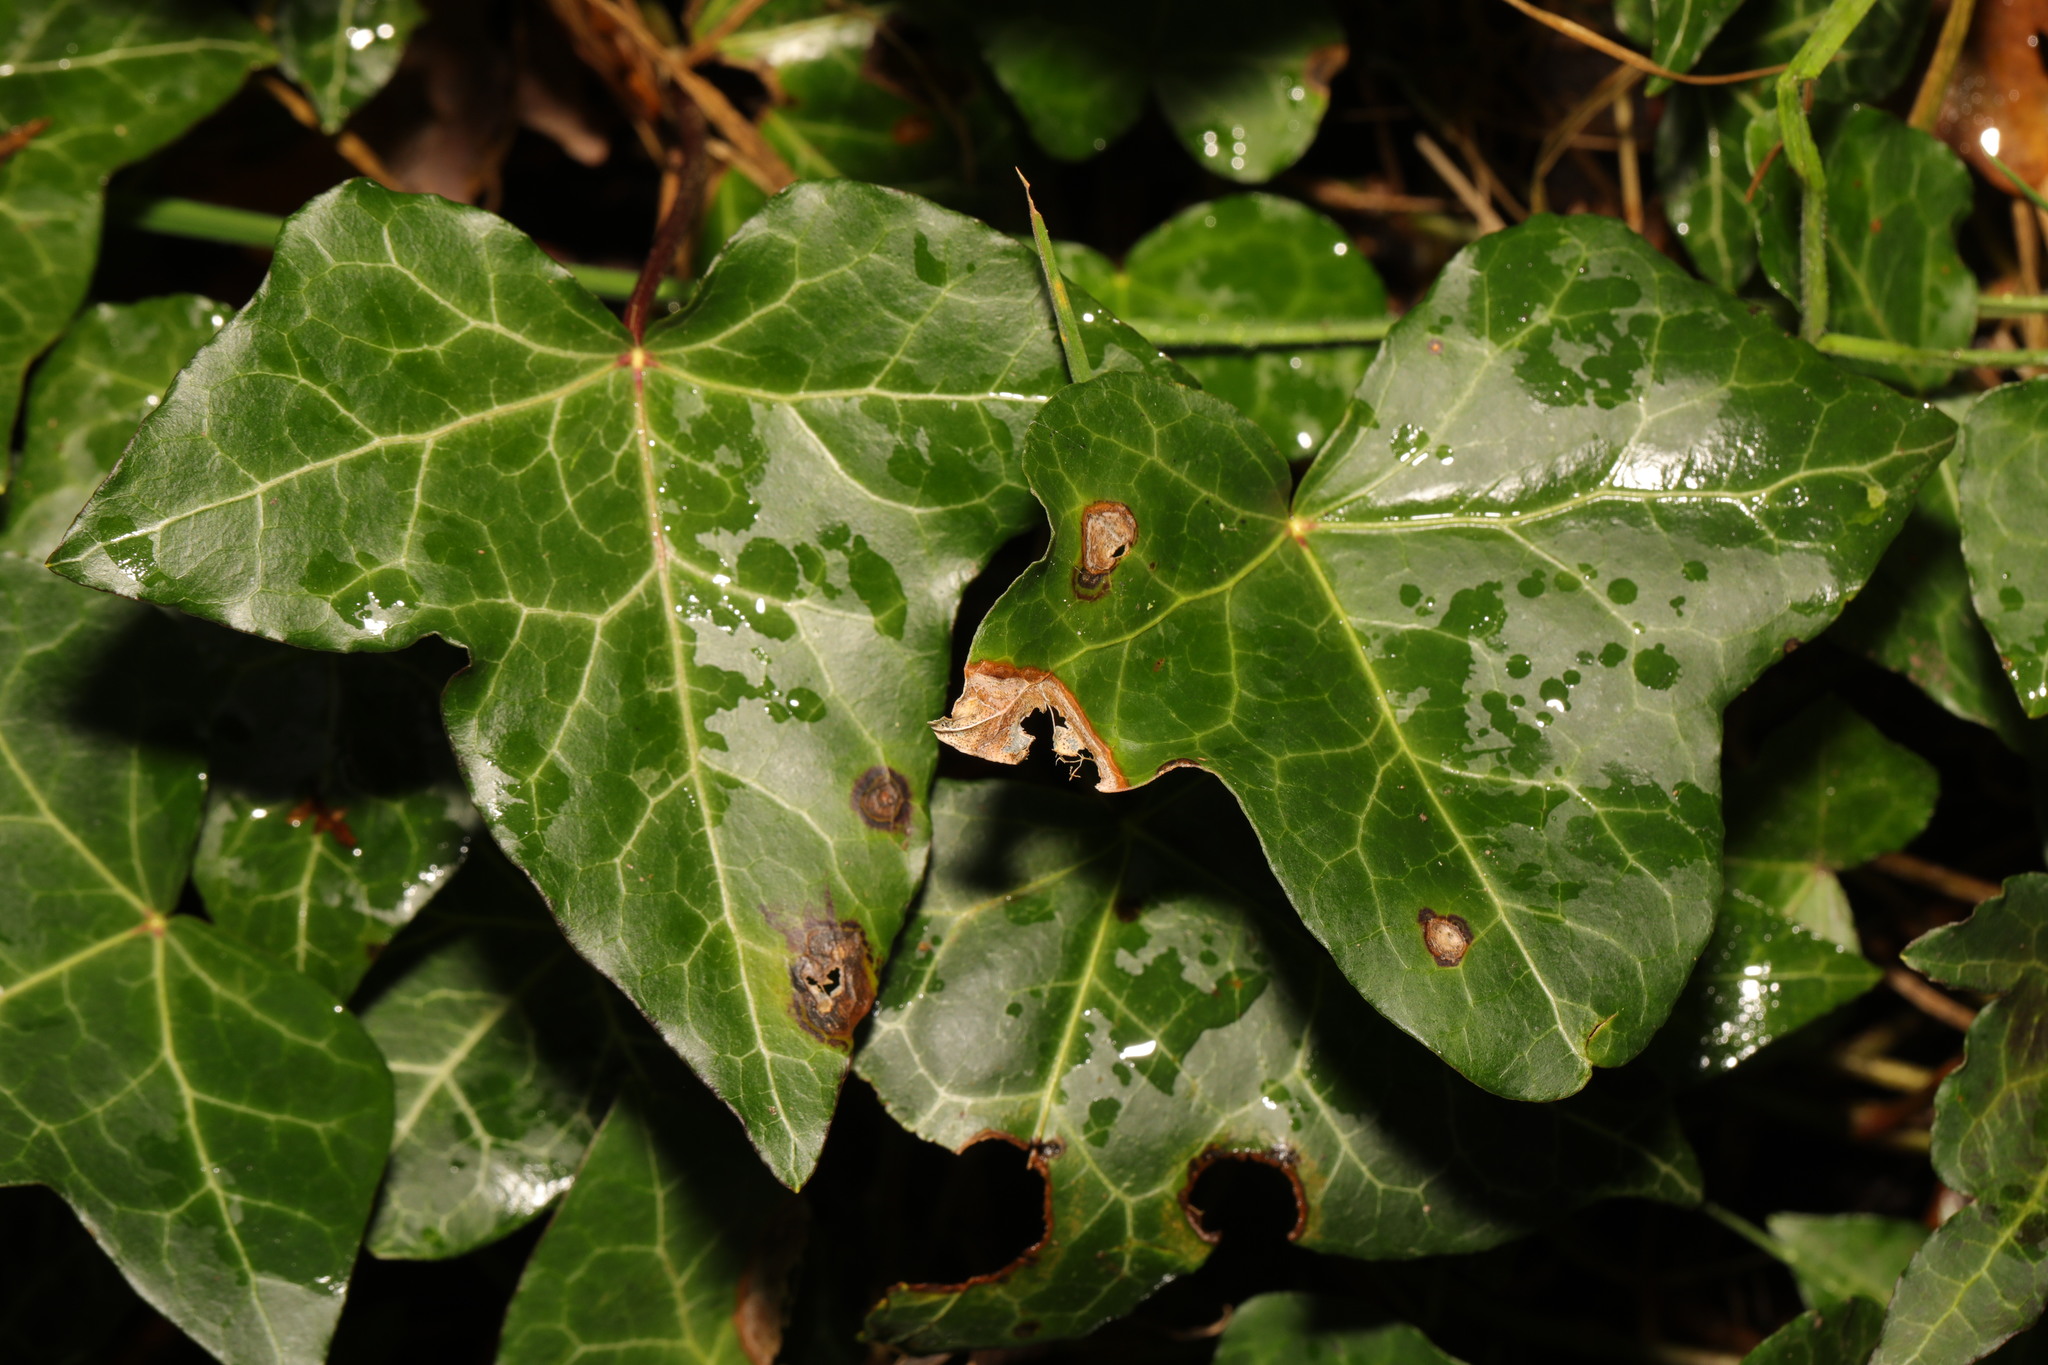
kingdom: Plantae
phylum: Tracheophyta
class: Magnoliopsida
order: Apiales
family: Araliaceae
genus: Hedera
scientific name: Hedera helix
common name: Ivy
